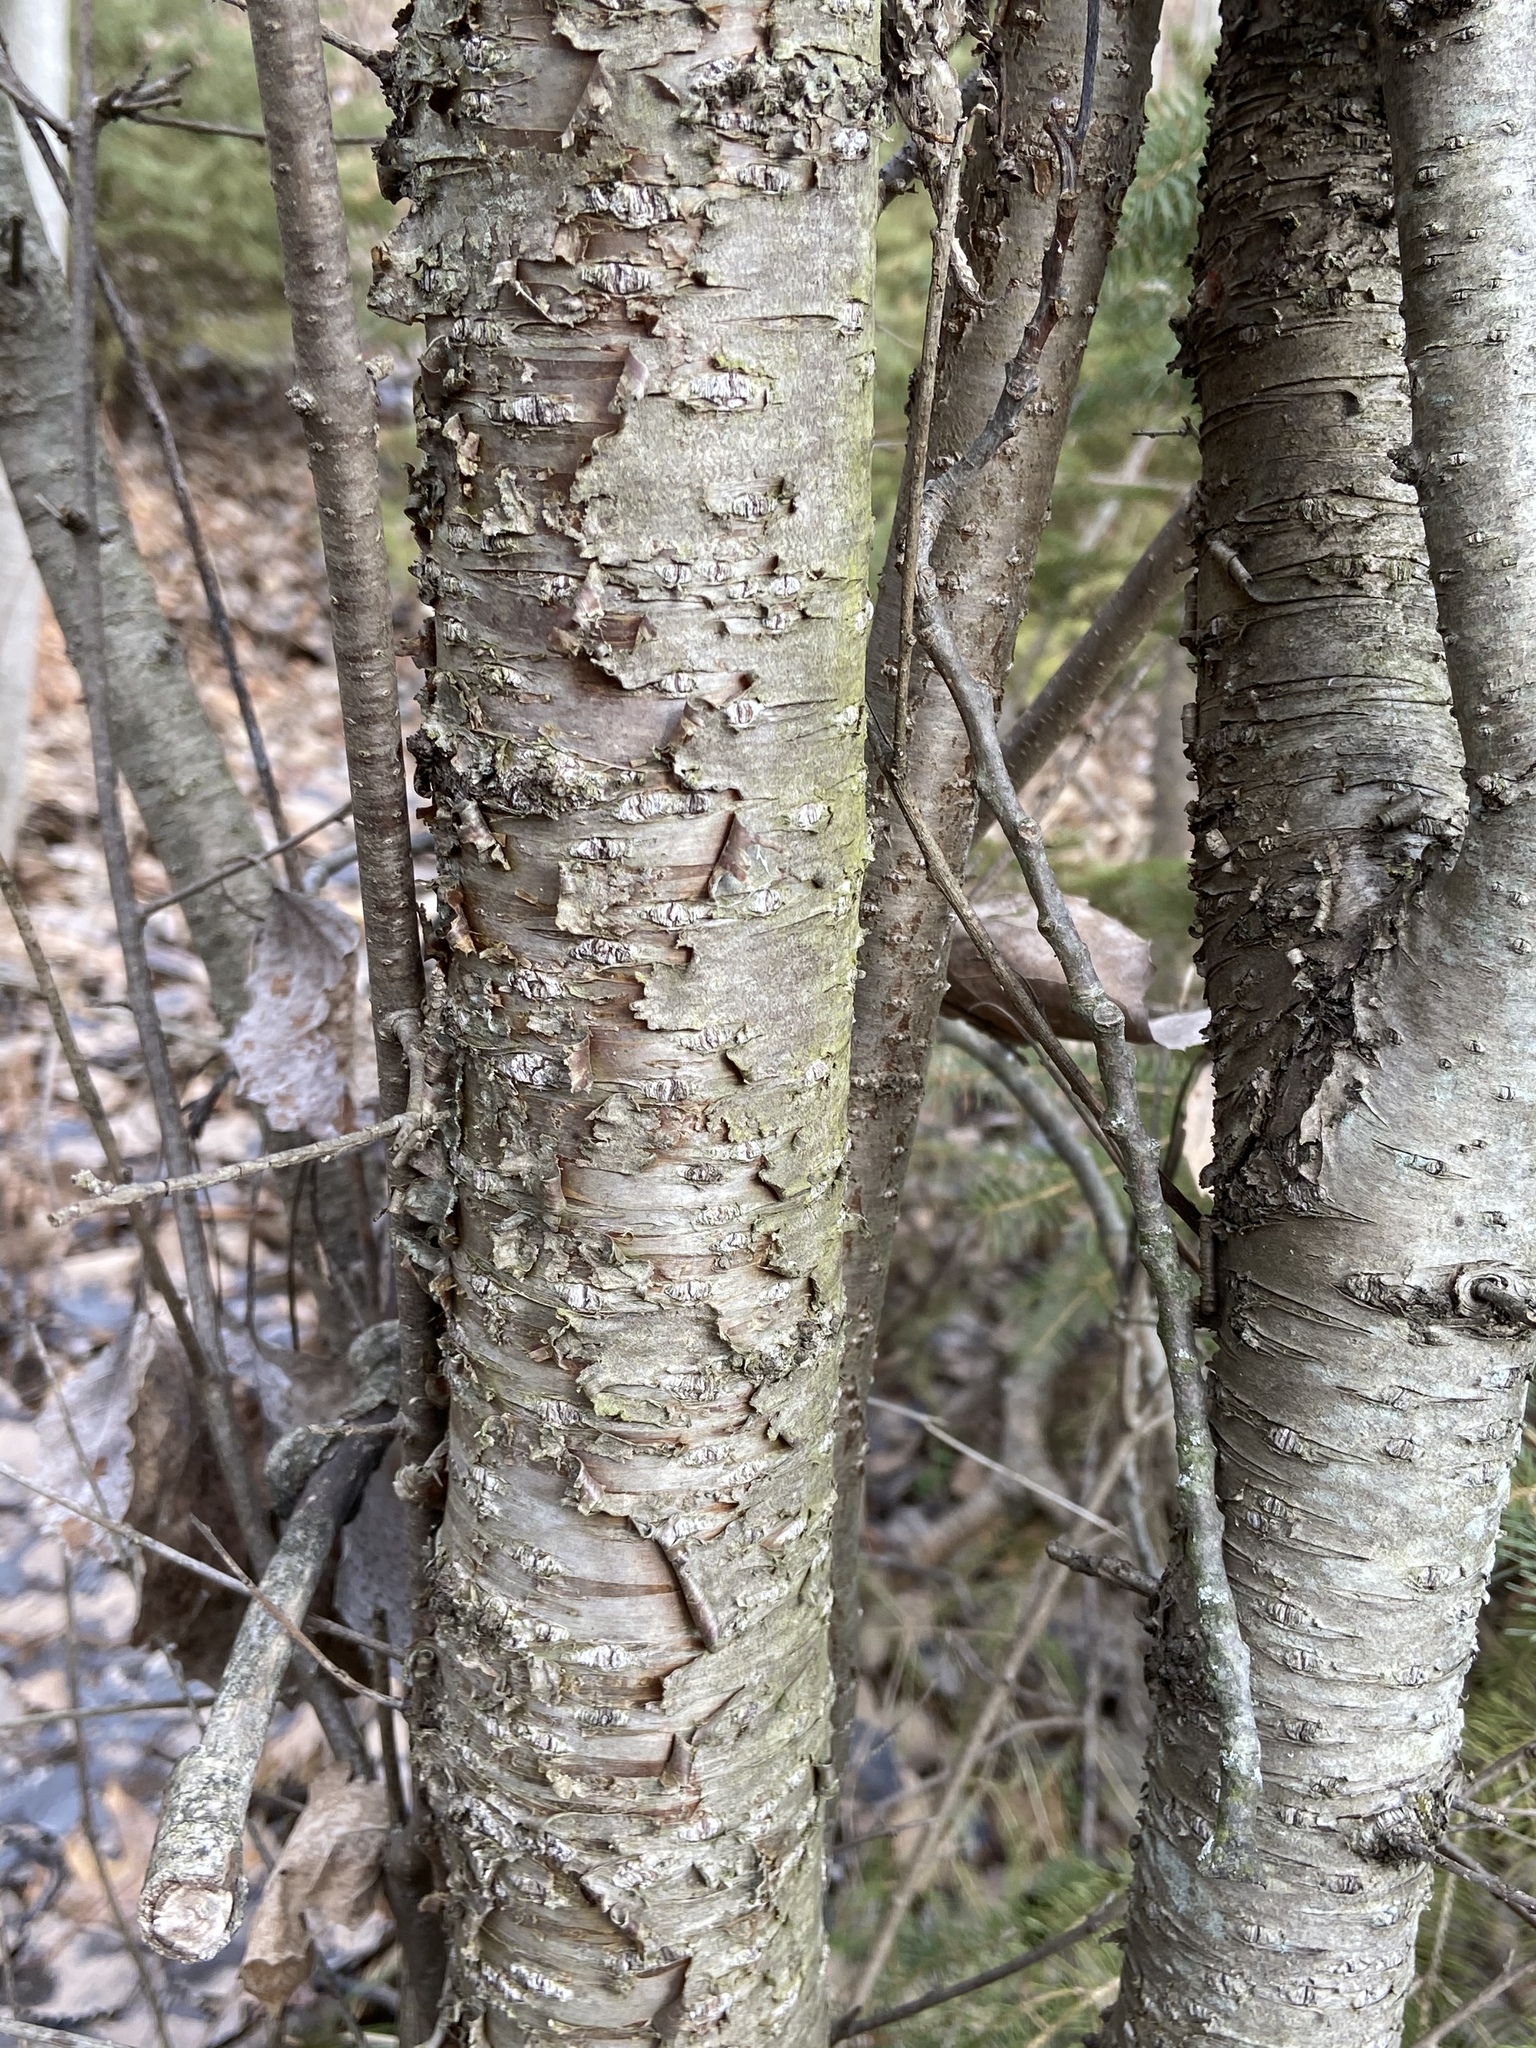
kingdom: Plantae
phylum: Tracheophyta
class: Magnoliopsida
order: Rosales
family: Rhamnaceae
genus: Rhamnus
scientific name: Rhamnus cathartica
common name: Common buckthorn
